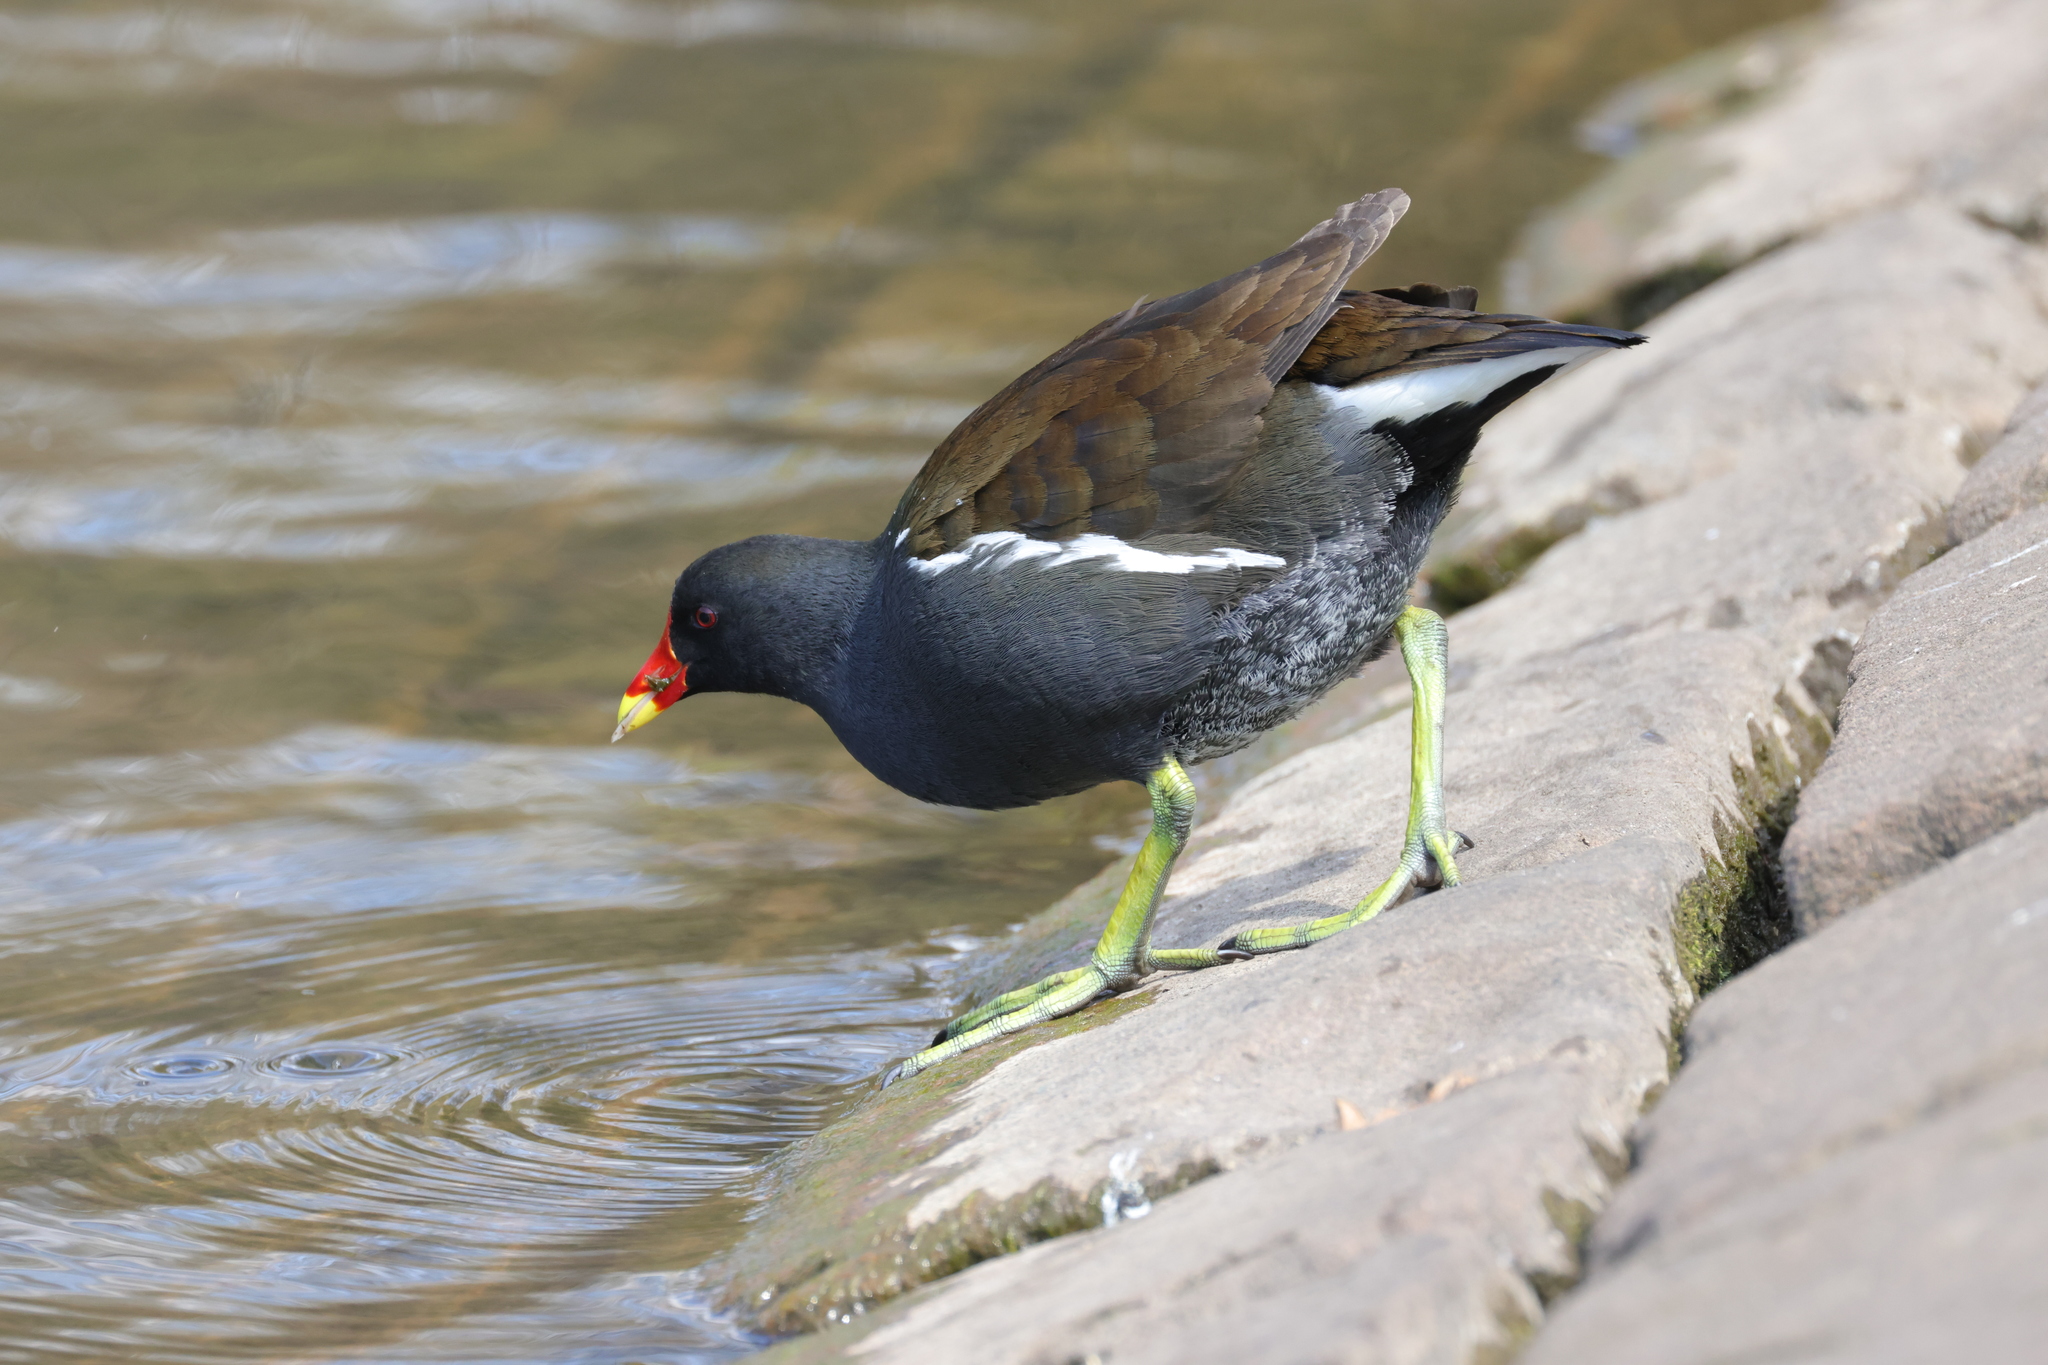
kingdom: Animalia
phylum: Chordata
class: Aves
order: Gruiformes
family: Rallidae
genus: Gallinula
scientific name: Gallinula chloropus
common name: Common moorhen
